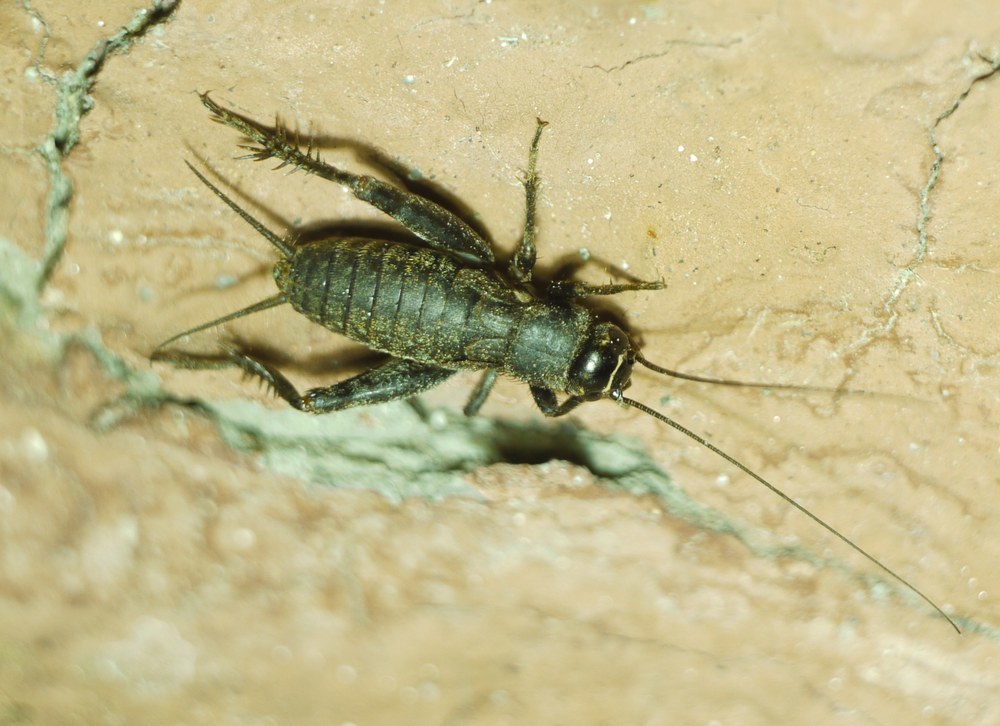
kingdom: Animalia
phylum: Arthropoda
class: Insecta
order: Orthoptera
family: Gryllidae
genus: Modicogryllus
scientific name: Modicogryllus frontalis
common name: Eastern cricket
